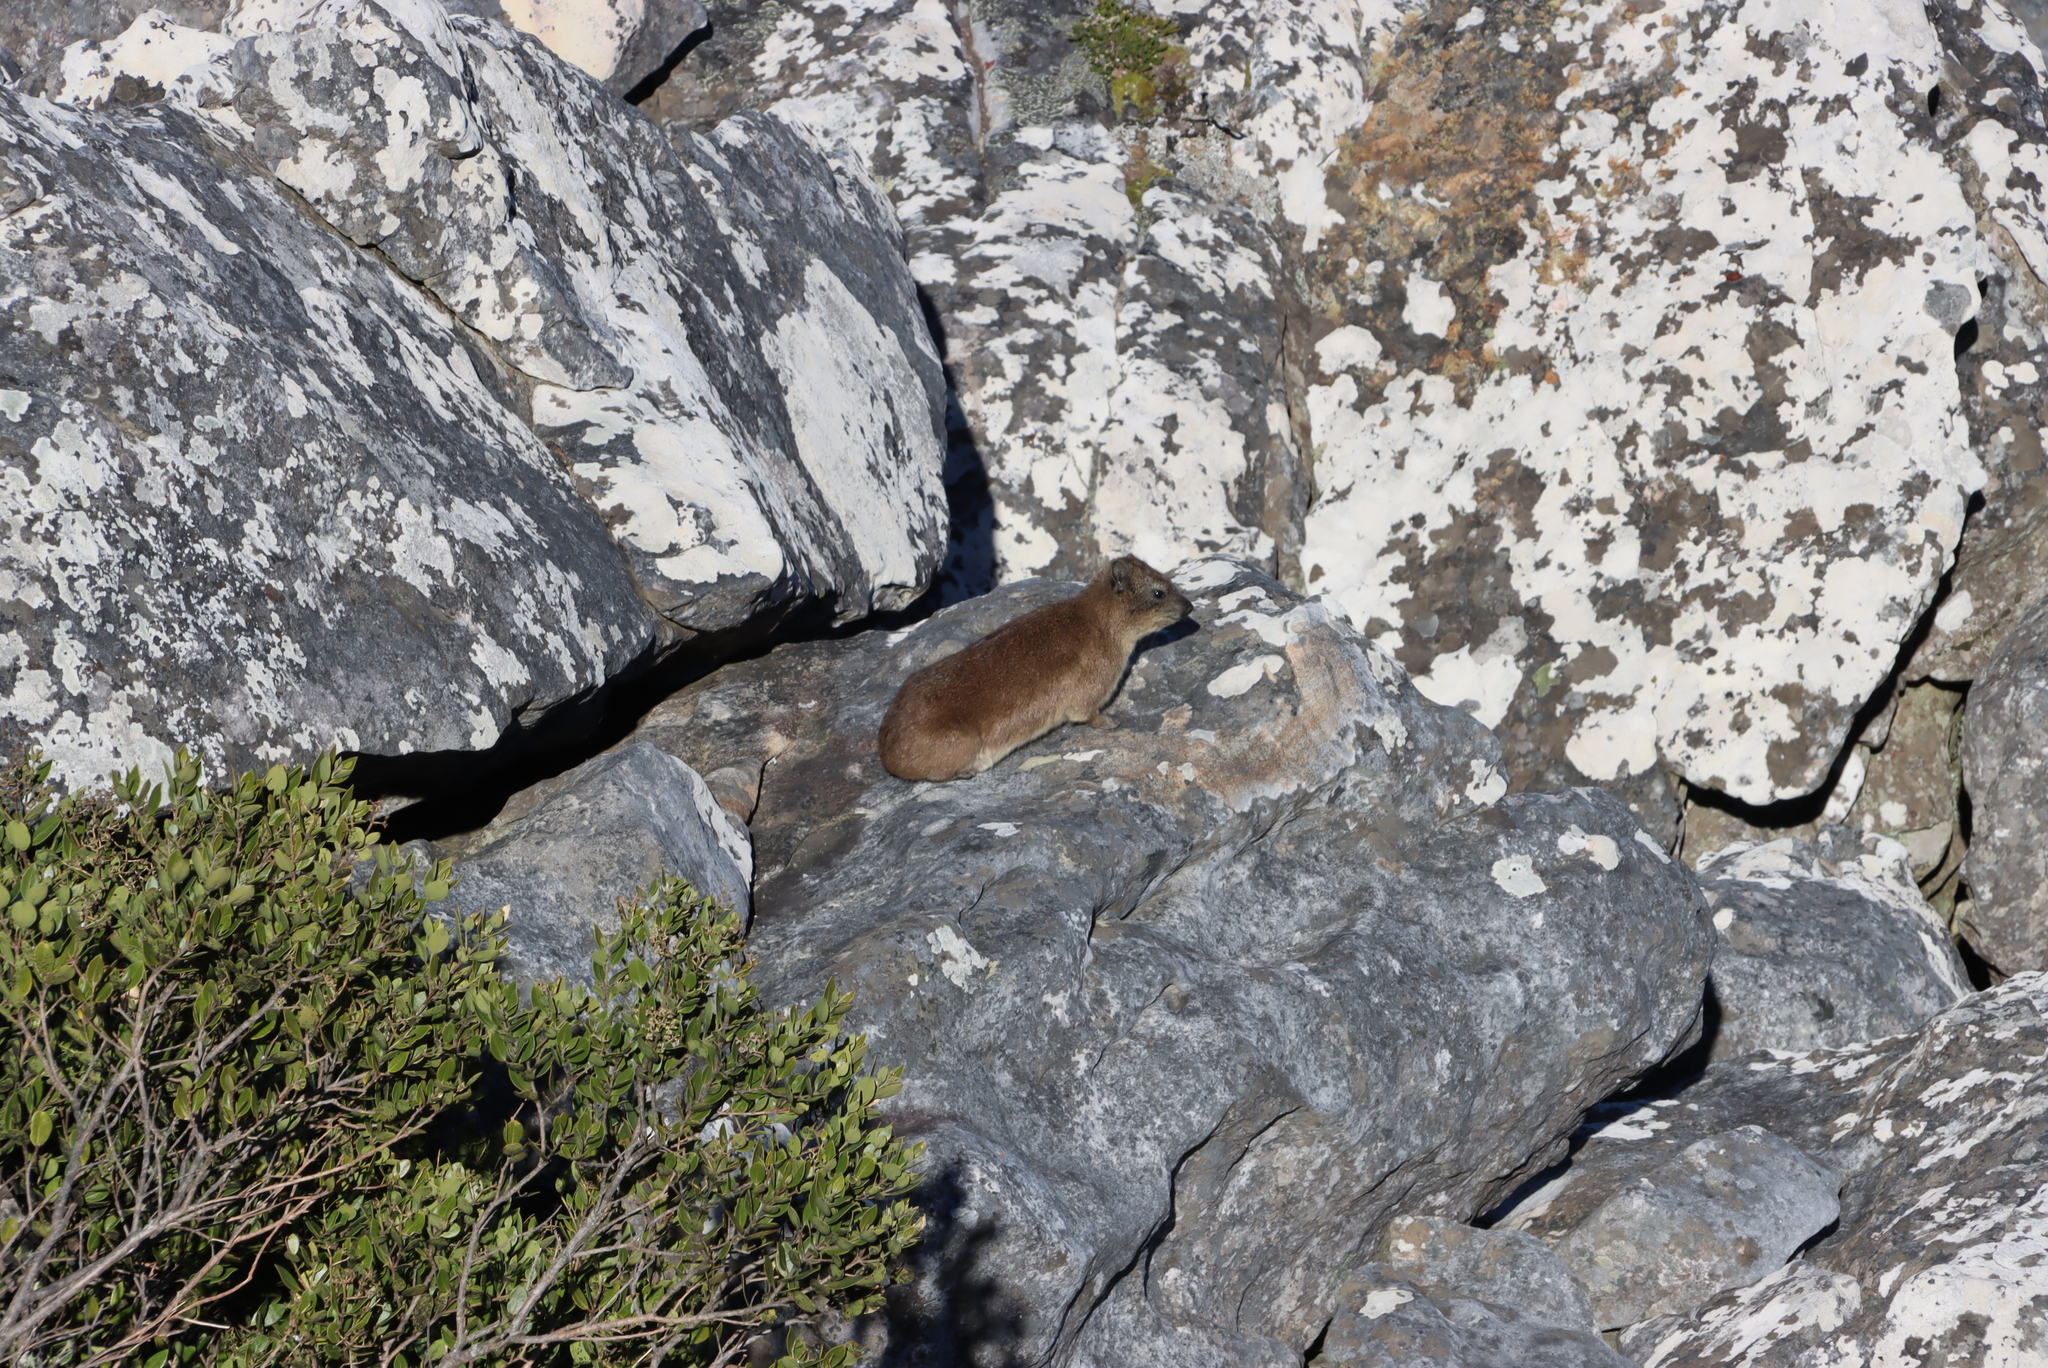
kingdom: Animalia
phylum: Chordata
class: Mammalia
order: Hyracoidea
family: Procaviidae
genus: Procavia
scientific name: Procavia capensis
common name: Rock hyrax
